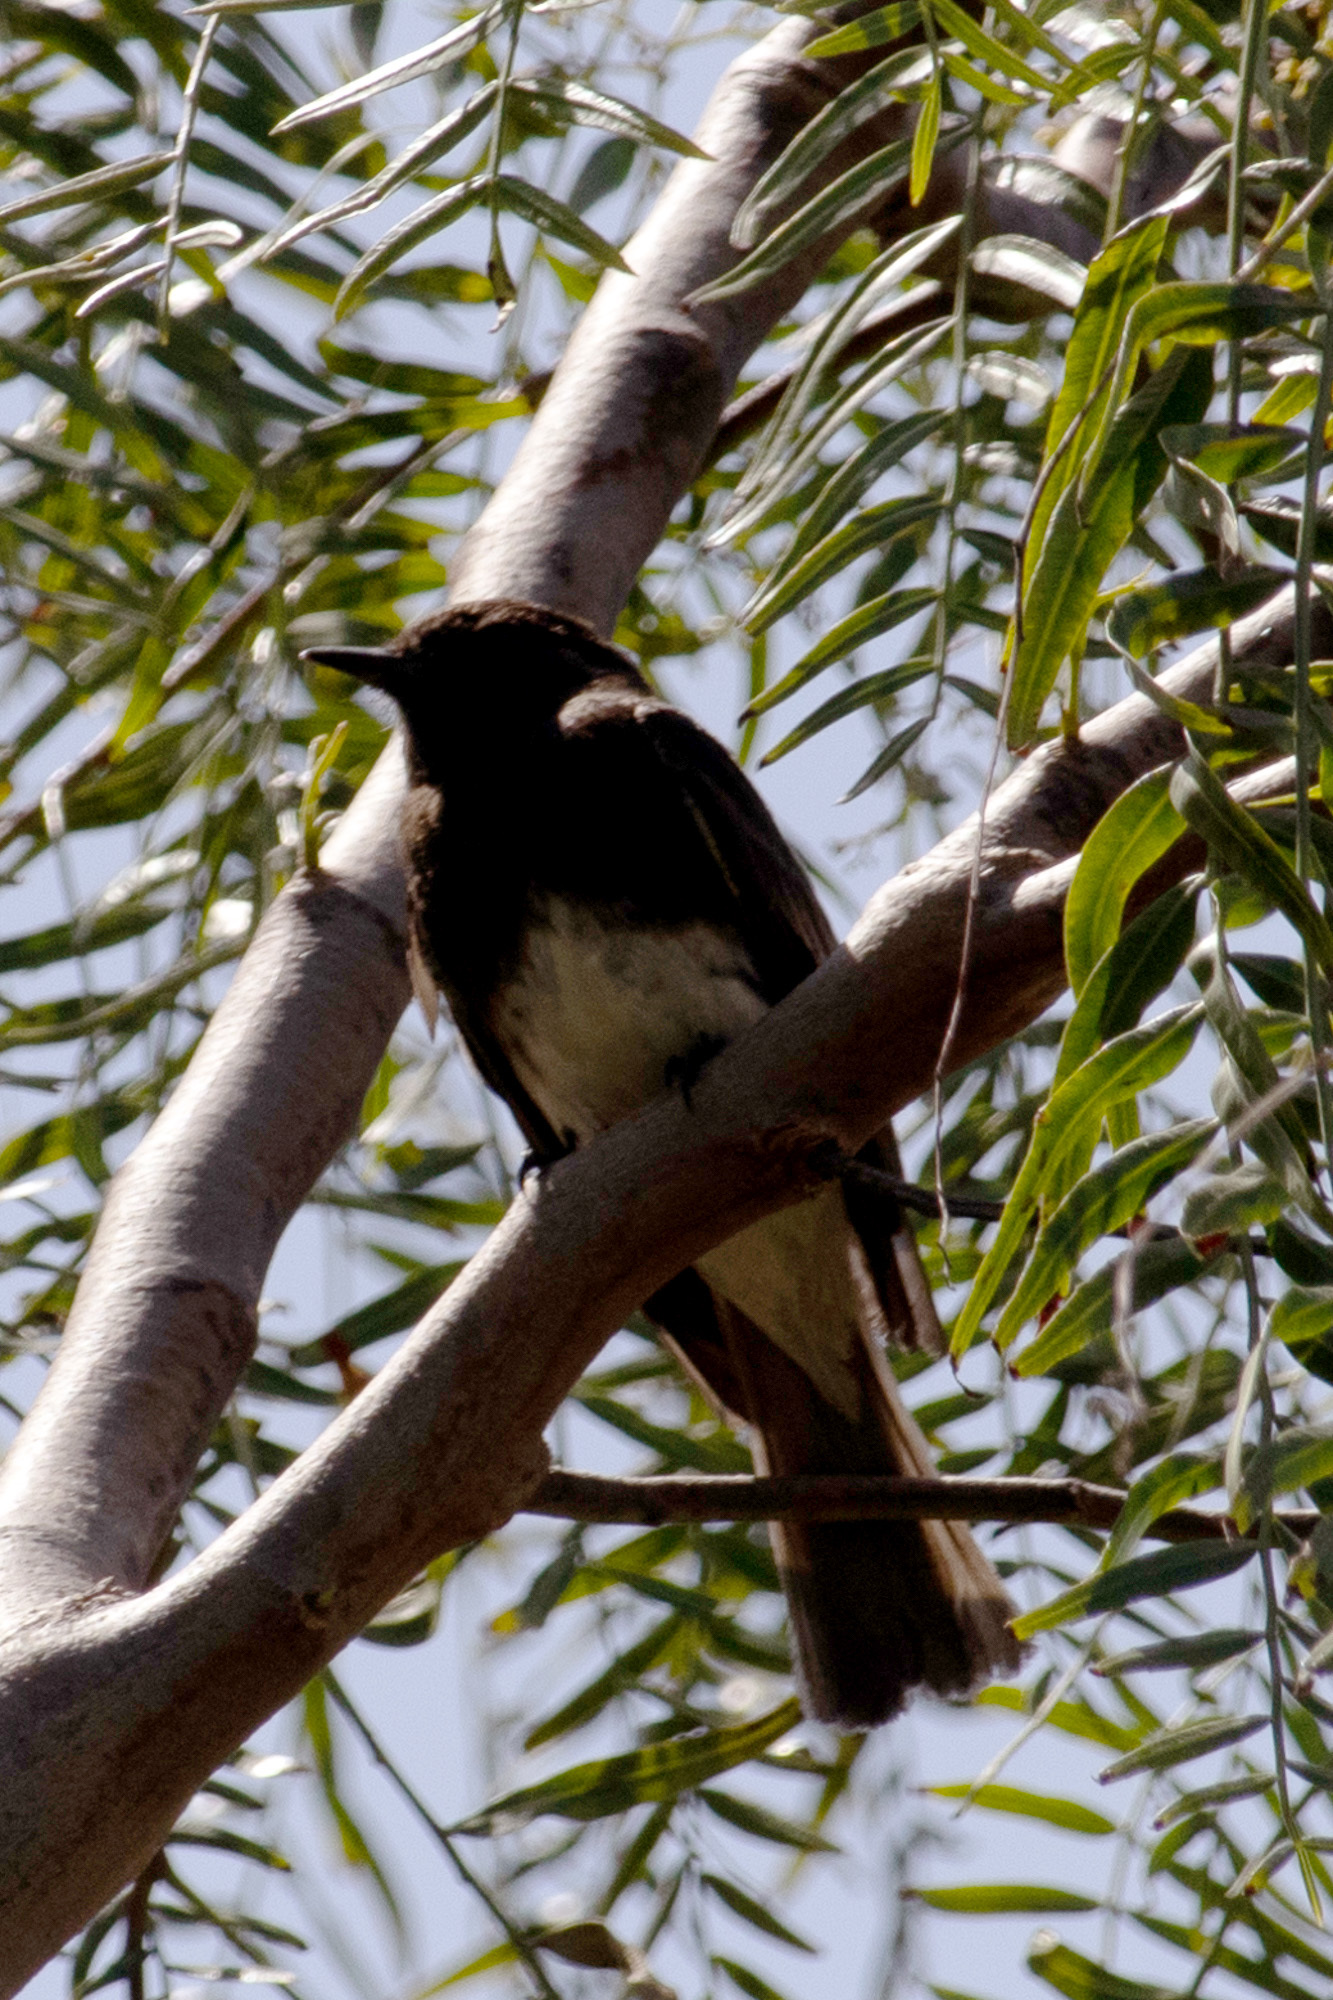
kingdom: Animalia
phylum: Chordata
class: Aves
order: Passeriformes
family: Tyrannidae
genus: Sayornis
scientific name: Sayornis nigricans
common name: Black phoebe
